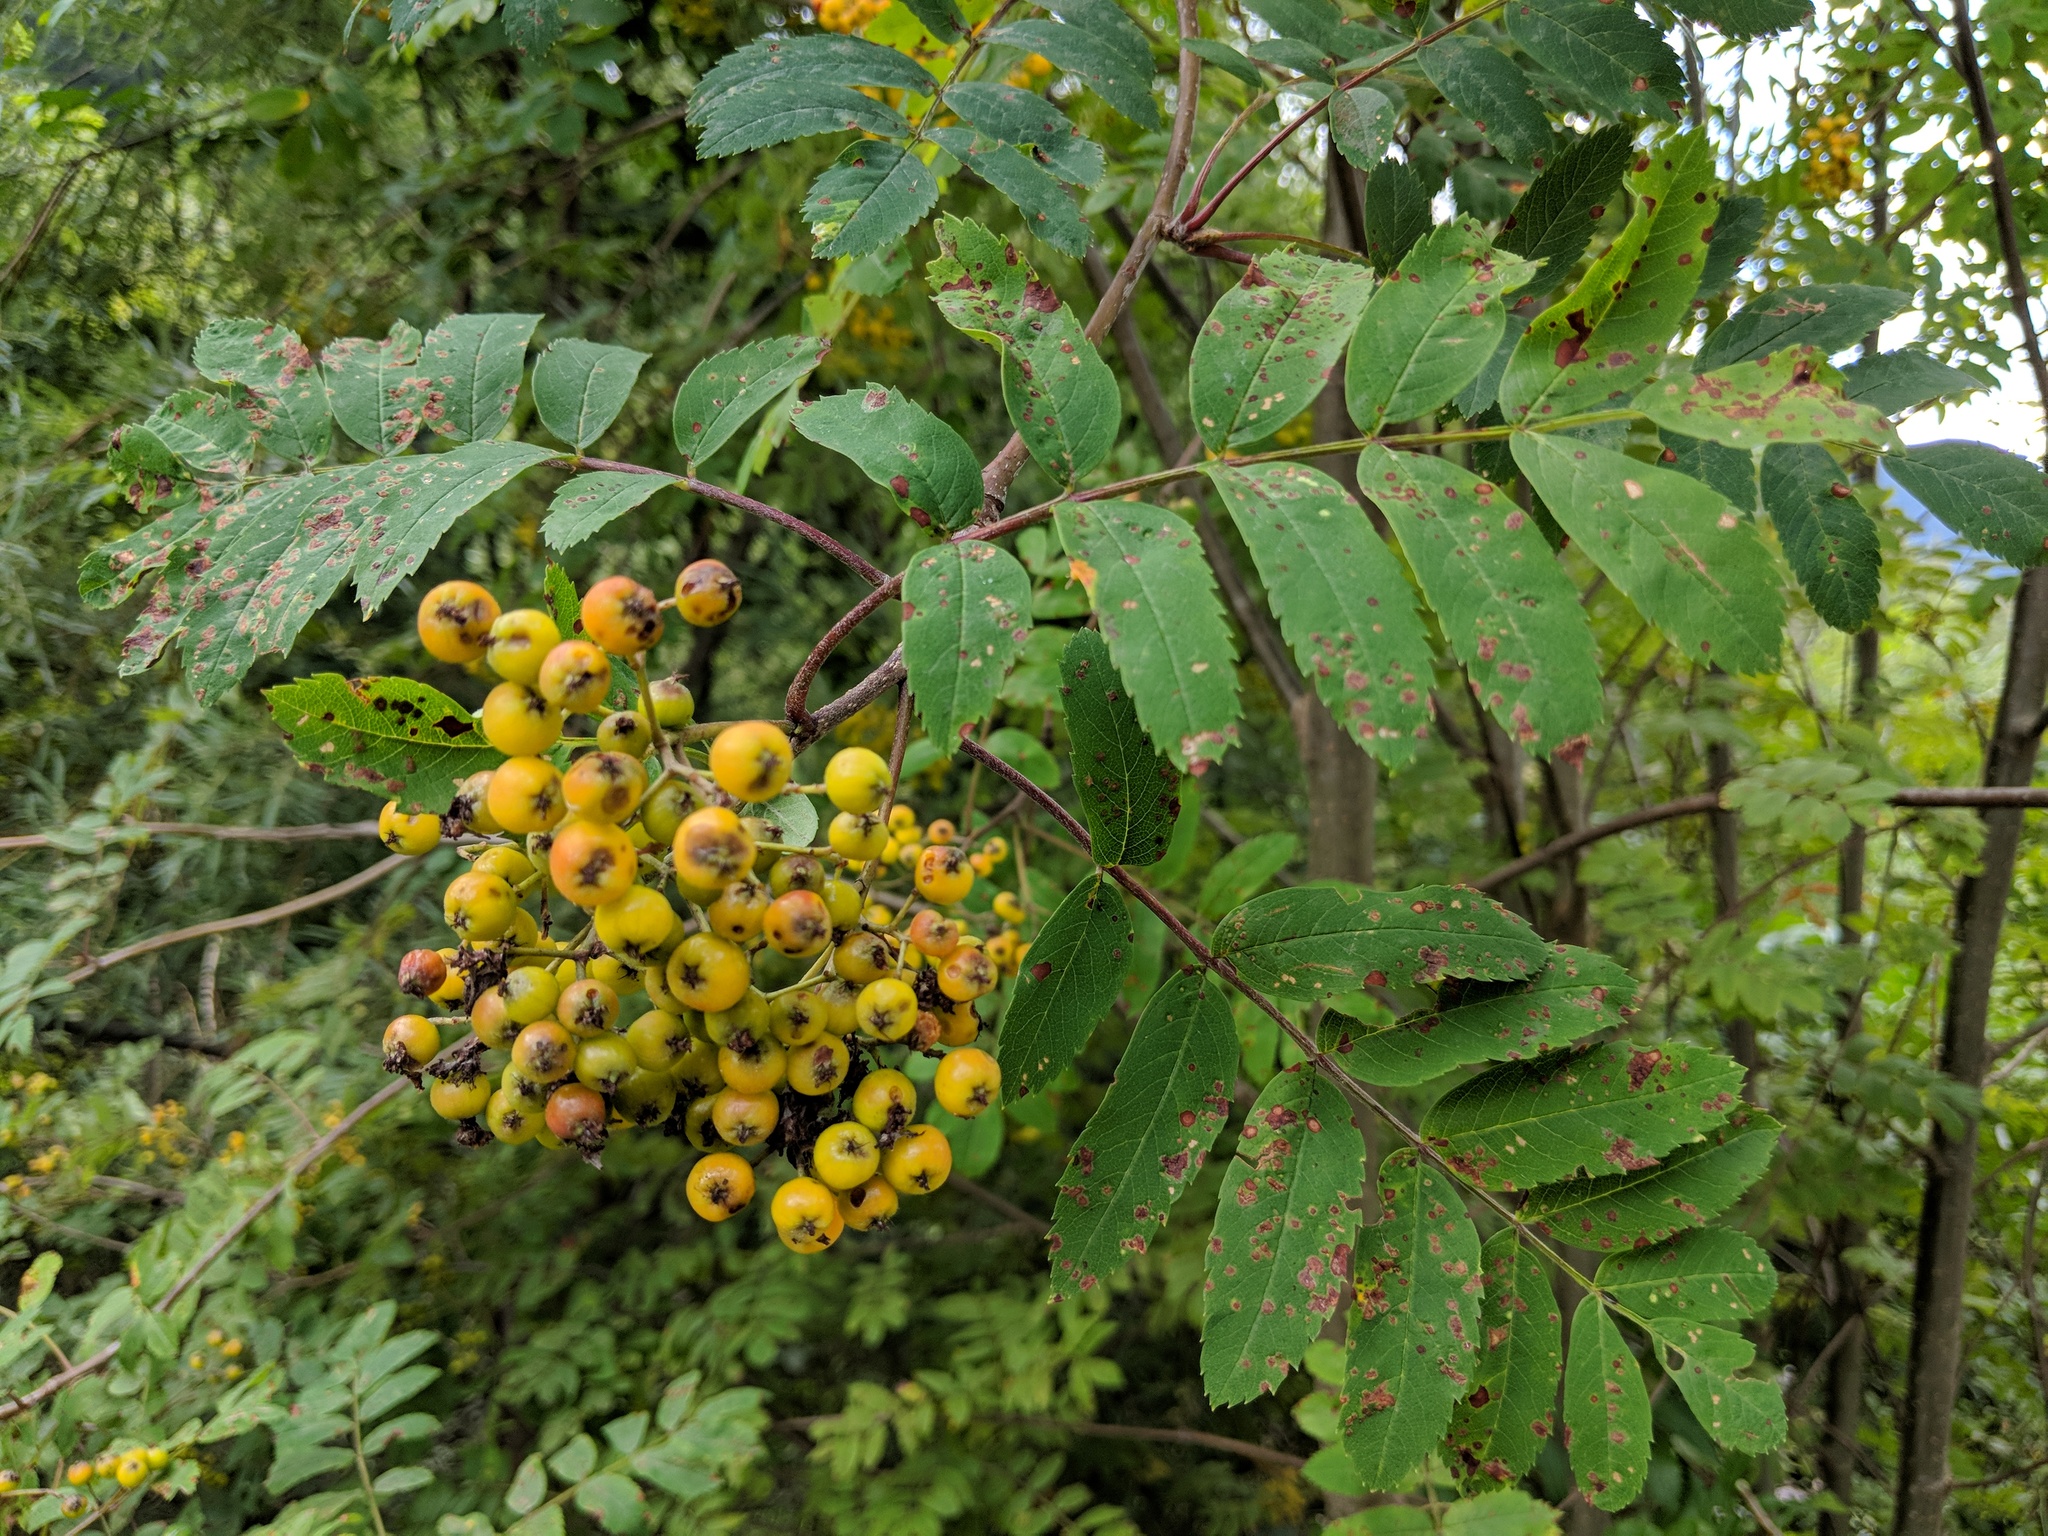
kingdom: Plantae
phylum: Tracheophyta
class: Magnoliopsida
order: Rosales
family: Rosaceae
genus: Sorbus
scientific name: Sorbus aucuparia
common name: Rowan
